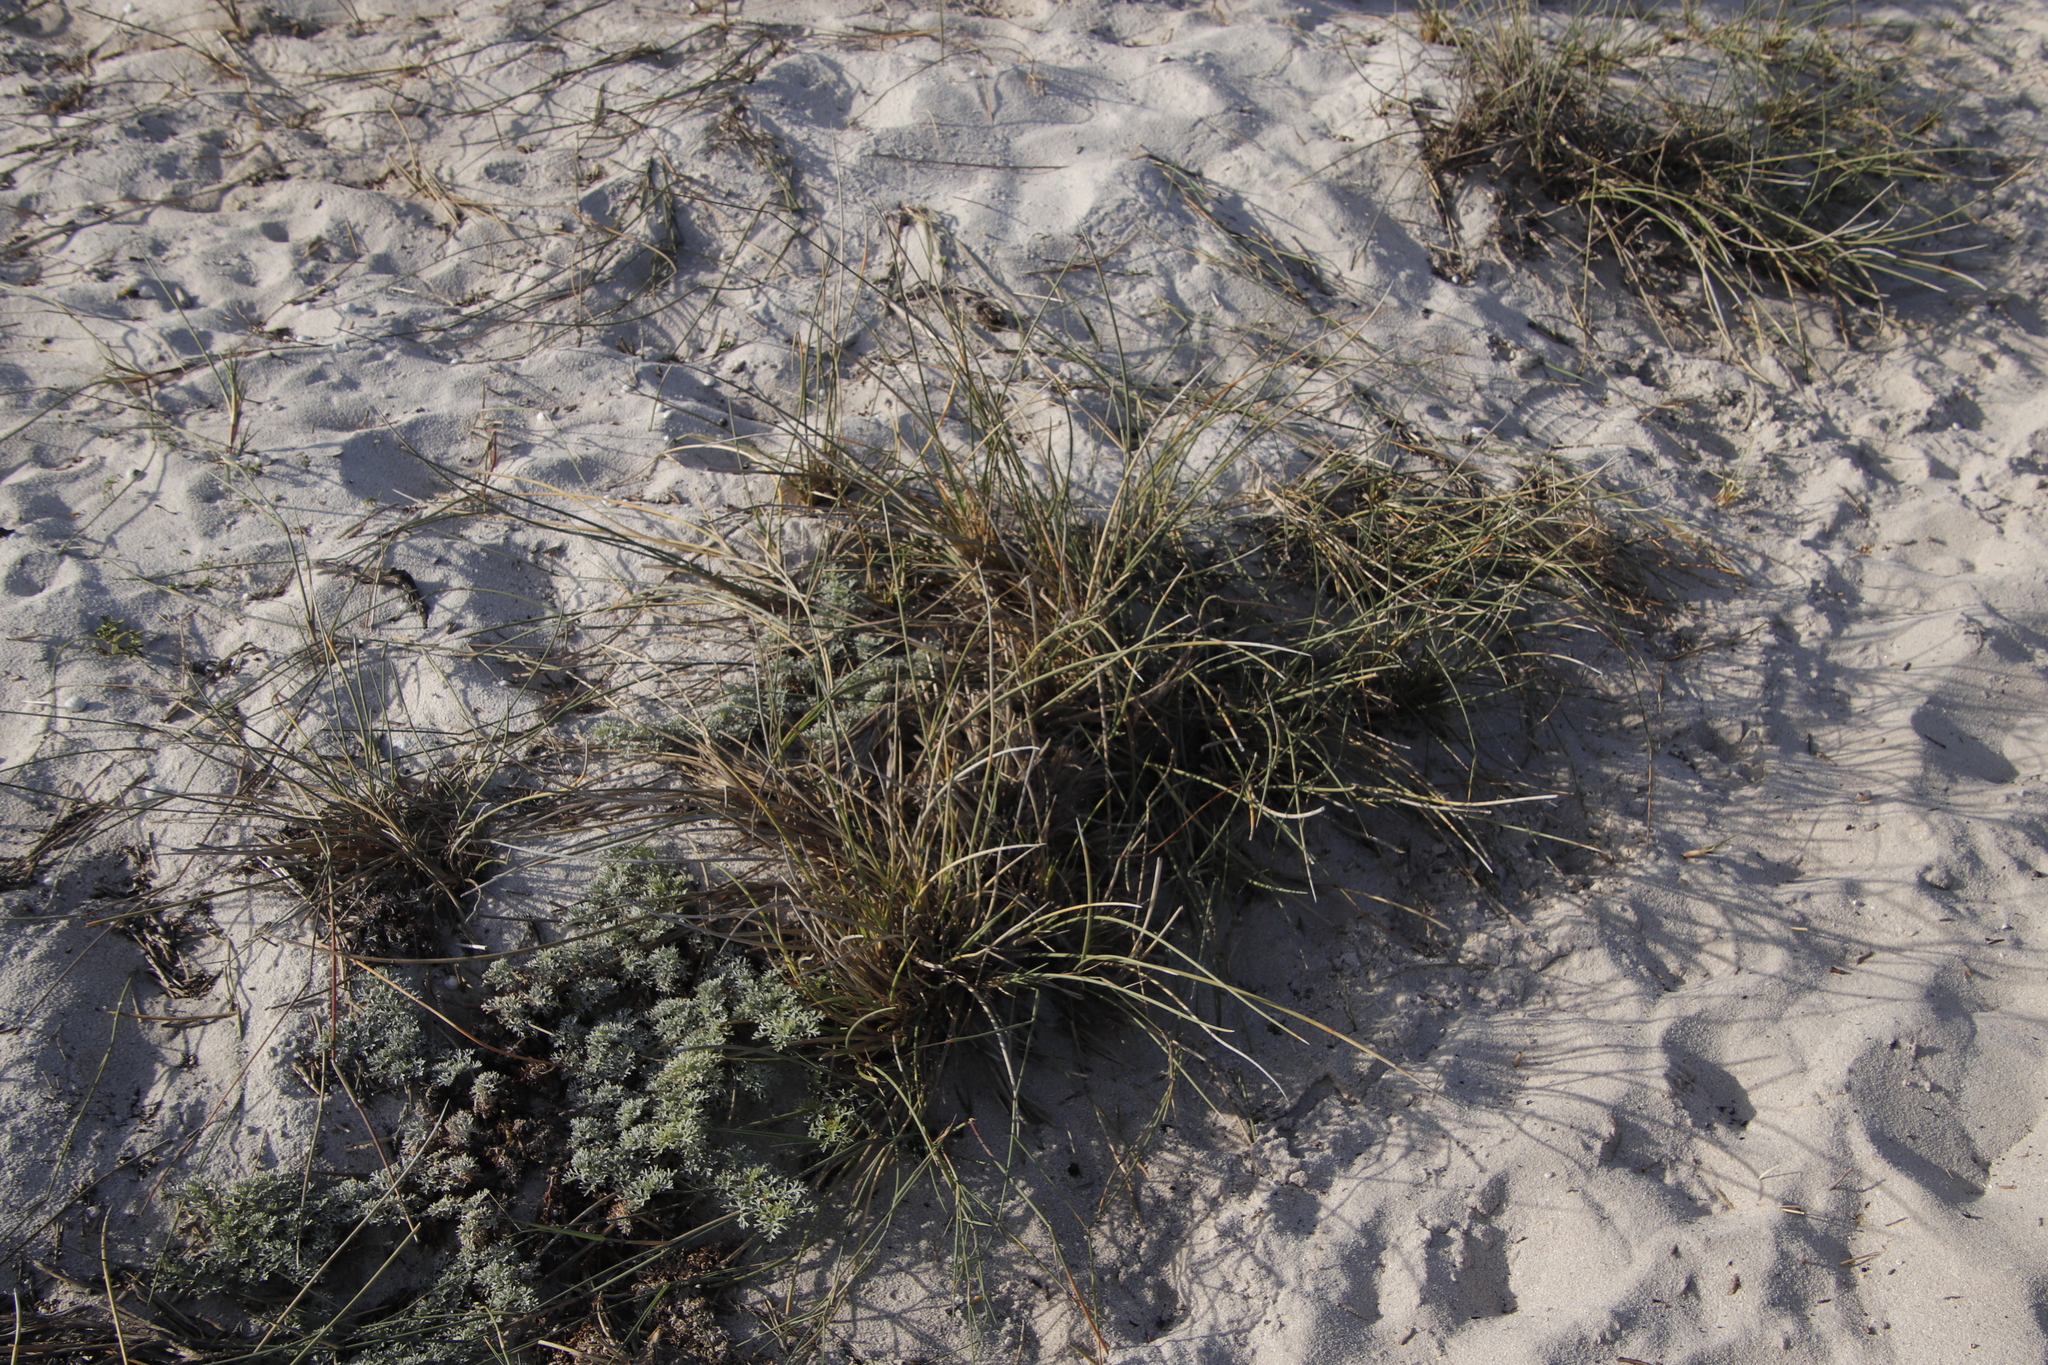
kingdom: Plantae
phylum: Tracheophyta
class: Liliopsida
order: Poales
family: Poaceae
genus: Cladoraphis
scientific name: Cladoraphis cyperoides
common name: Bristly lovegrass
